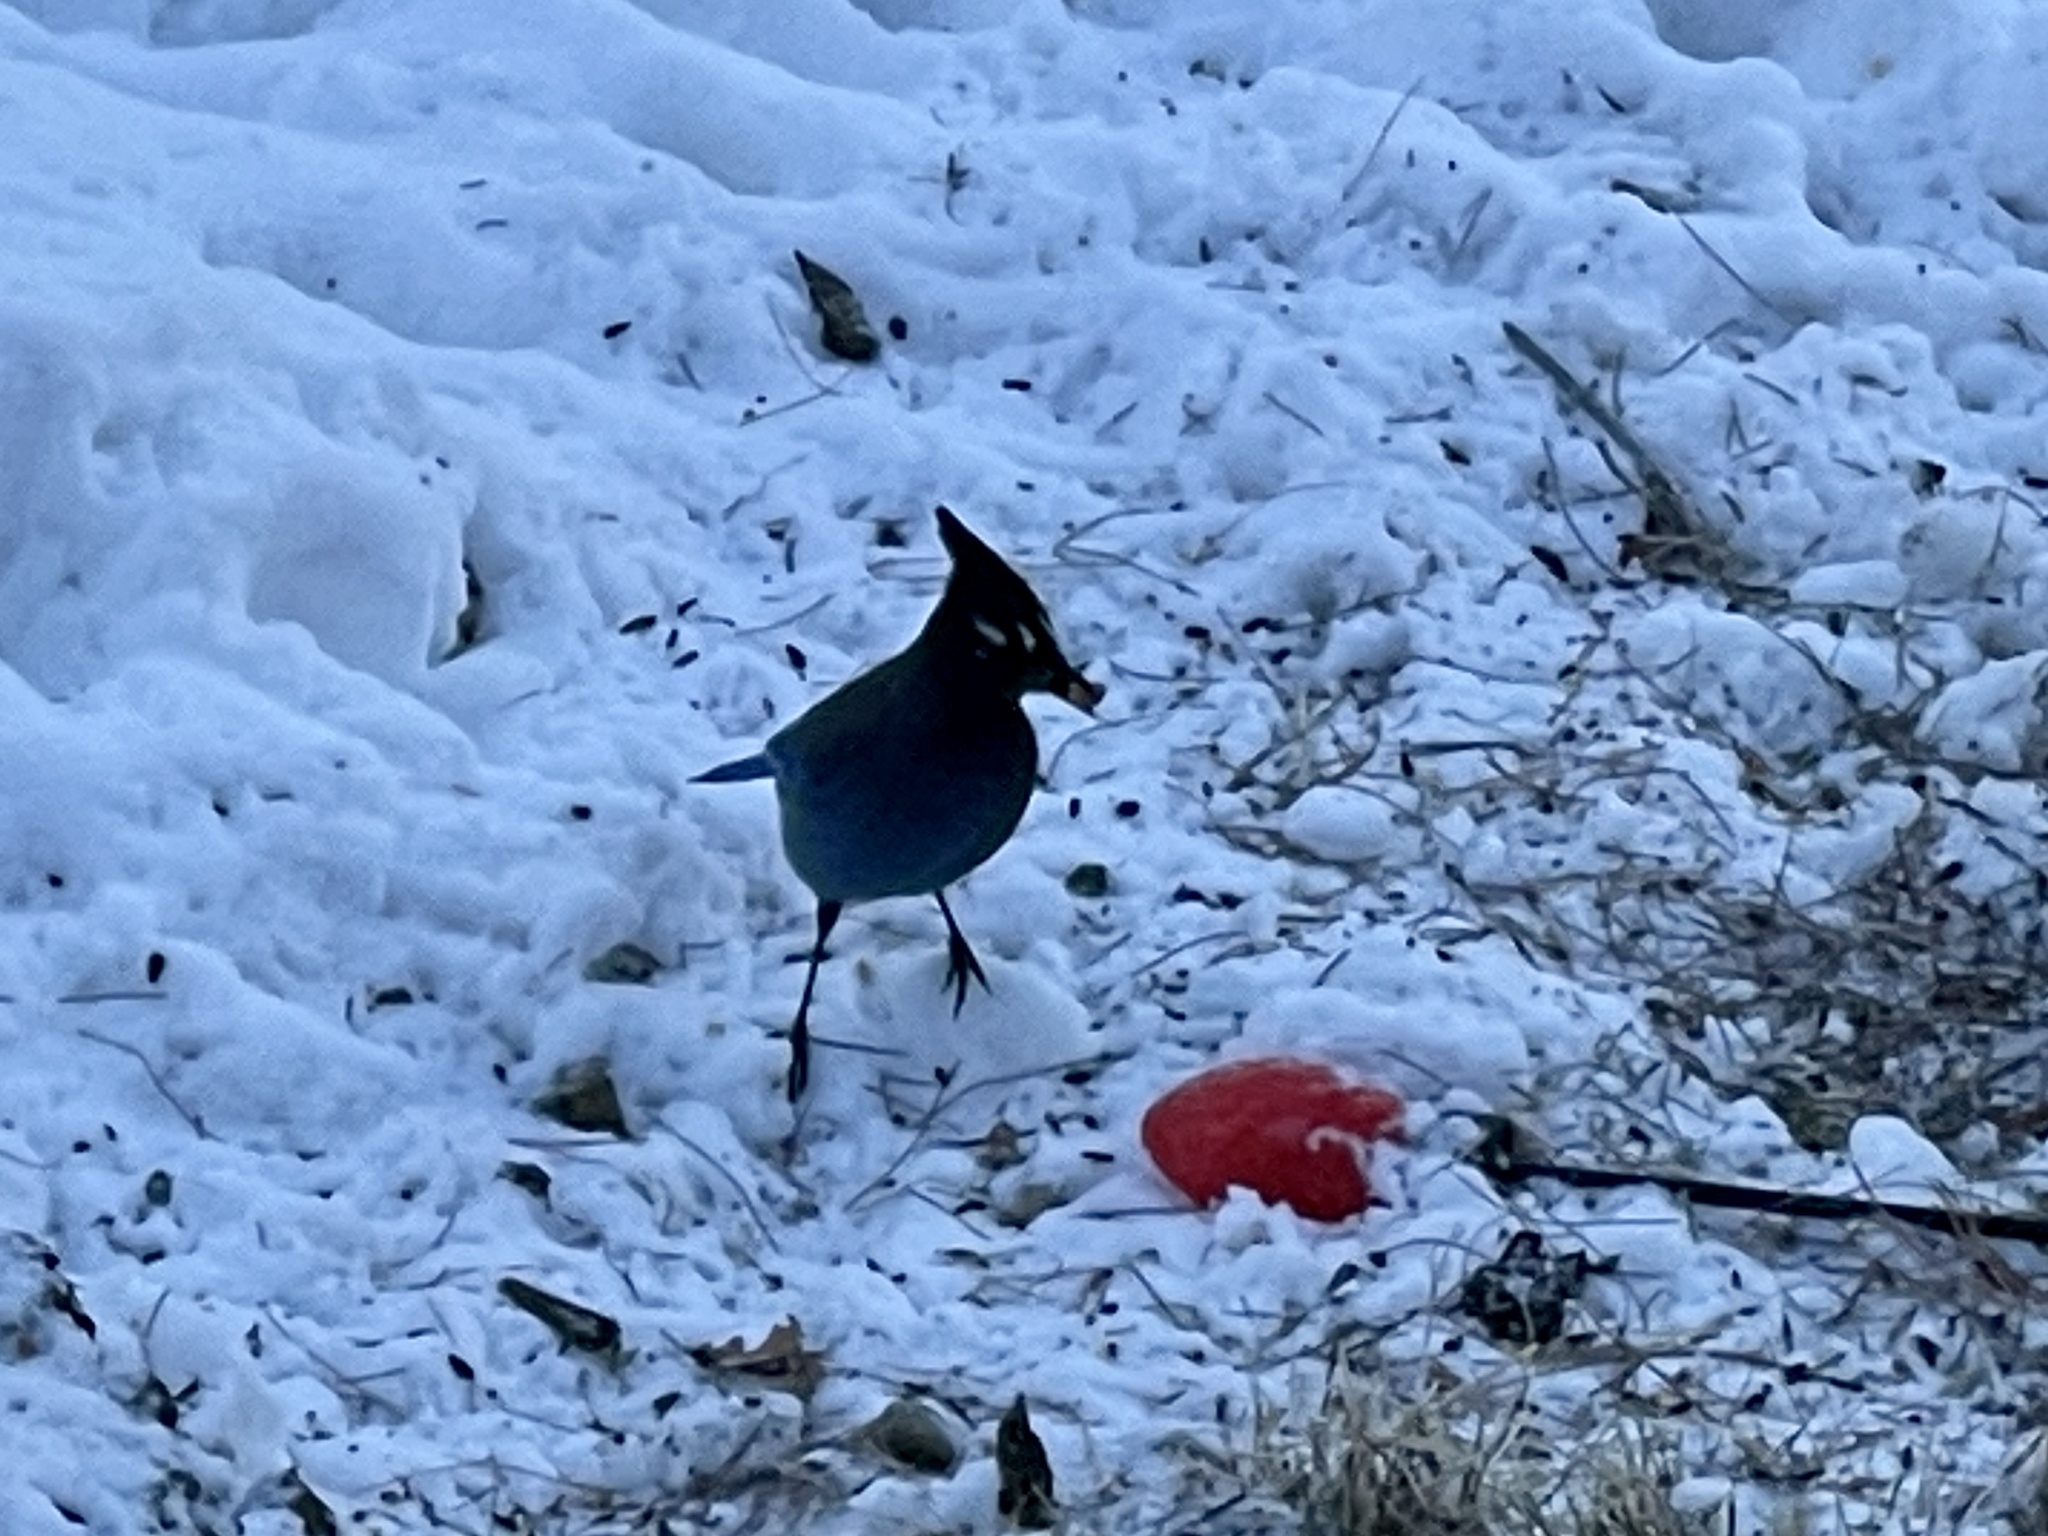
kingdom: Animalia
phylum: Chordata
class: Aves
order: Passeriformes
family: Corvidae
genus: Cyanocitta
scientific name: Cyanocitta stelleri
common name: Steller's jay
